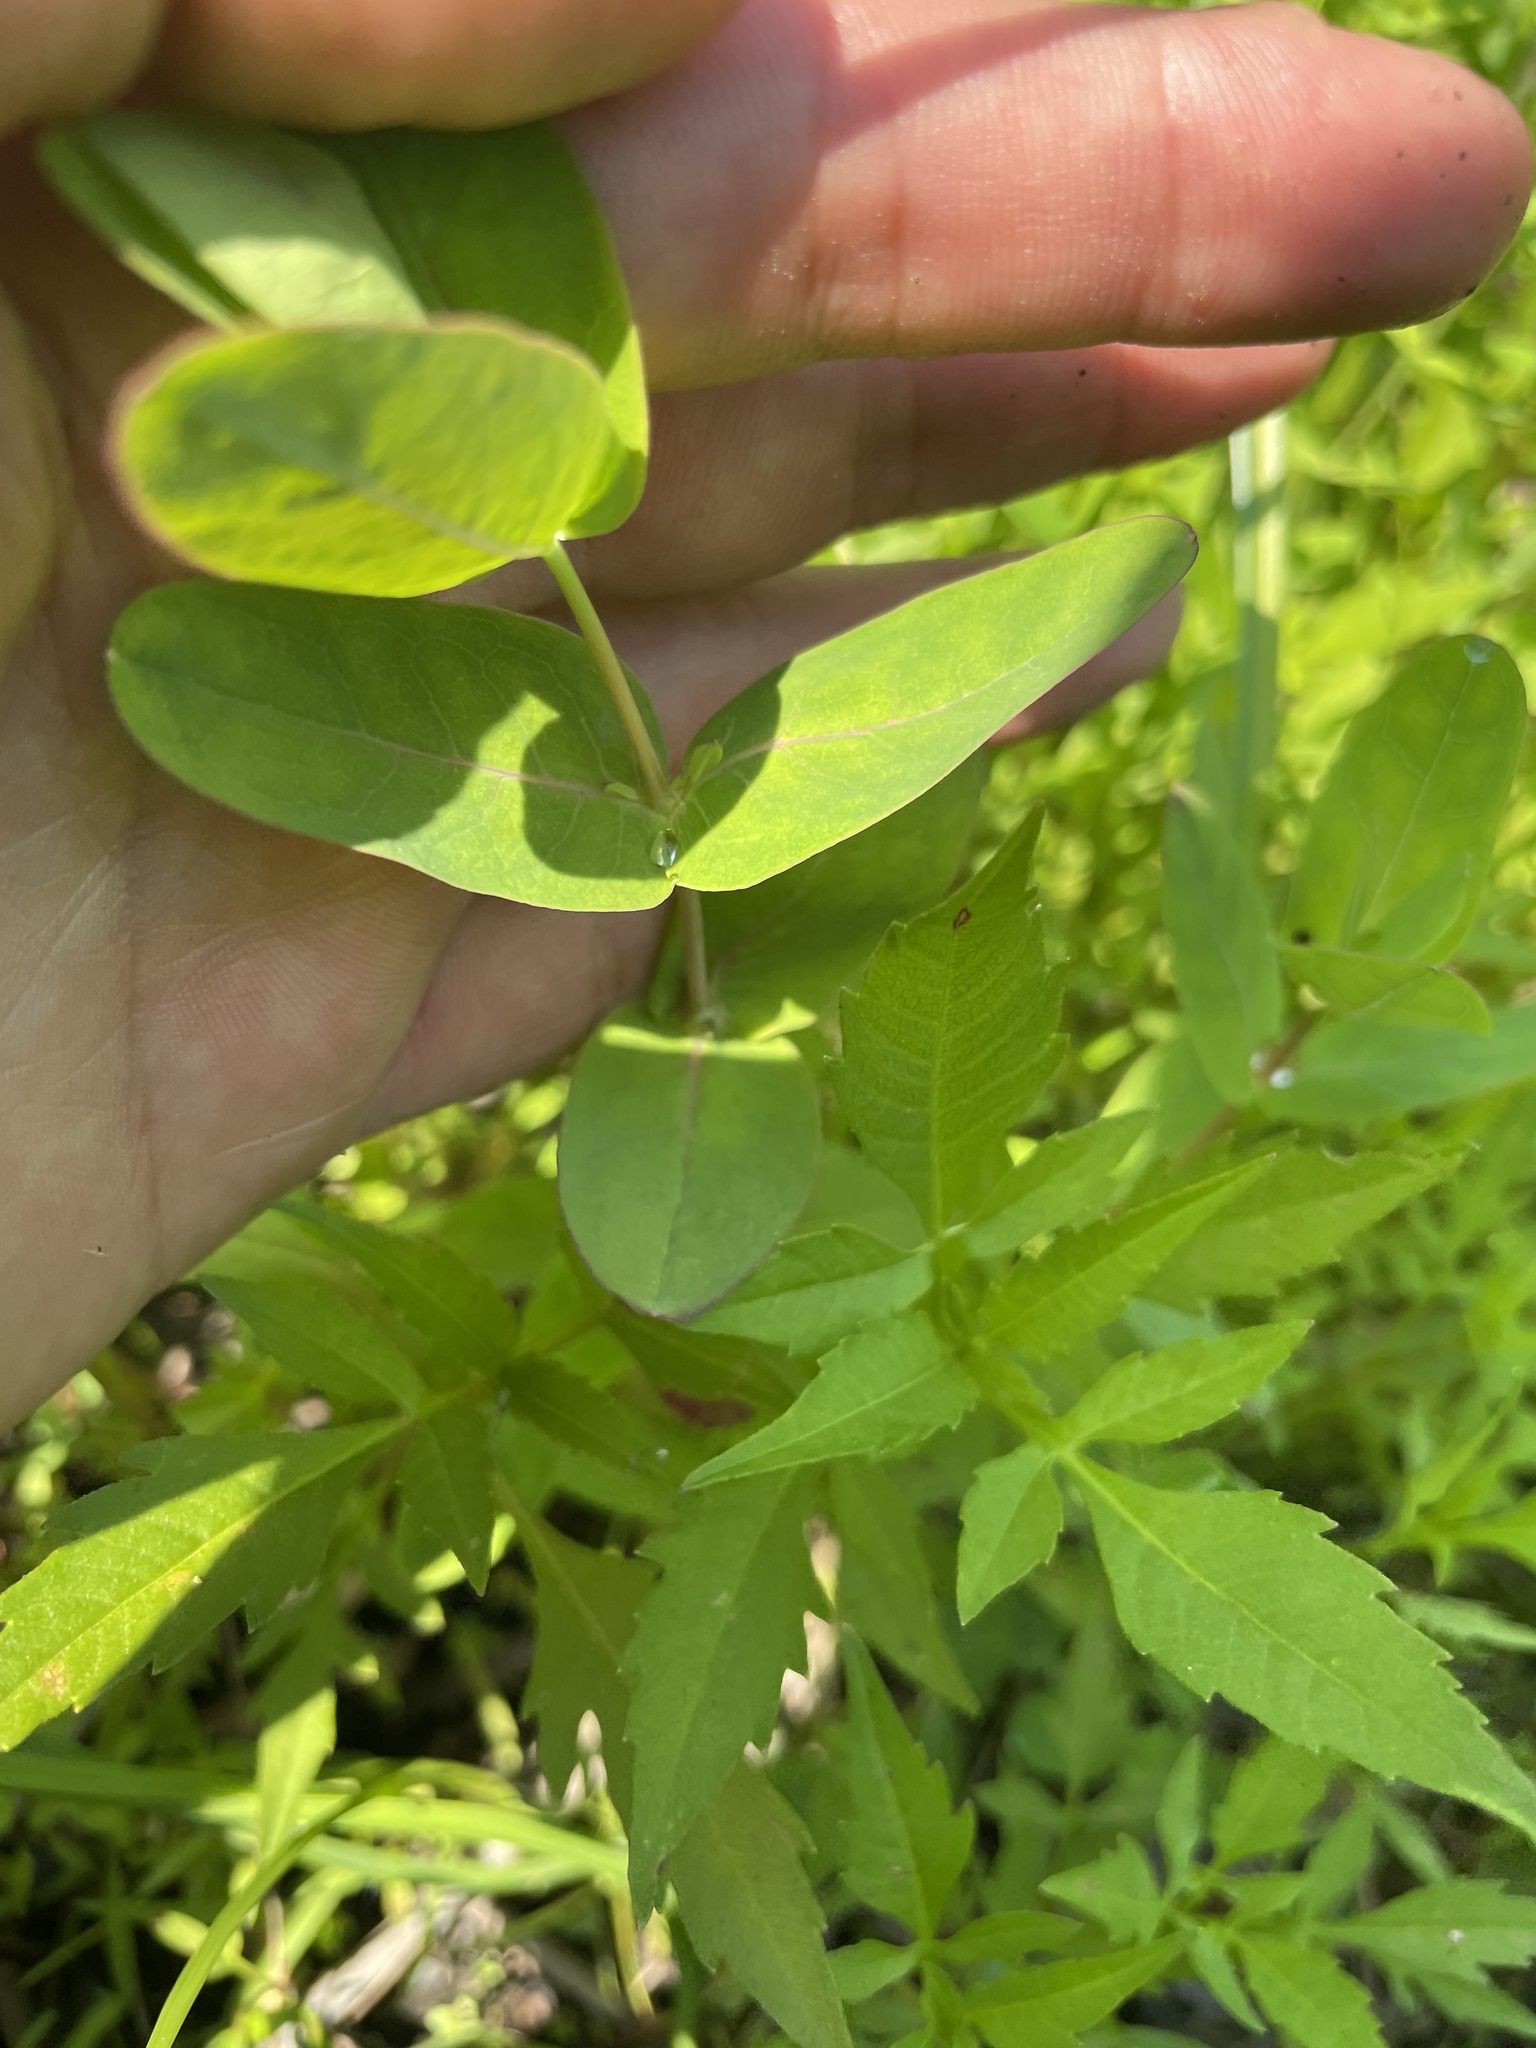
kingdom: Plantae
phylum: Tracheophyta
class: Magnoliopsida
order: Malpighiales
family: Hypericaceae
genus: Triadenum
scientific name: Triadenum virginicum
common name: Marsh st. john's-wort
